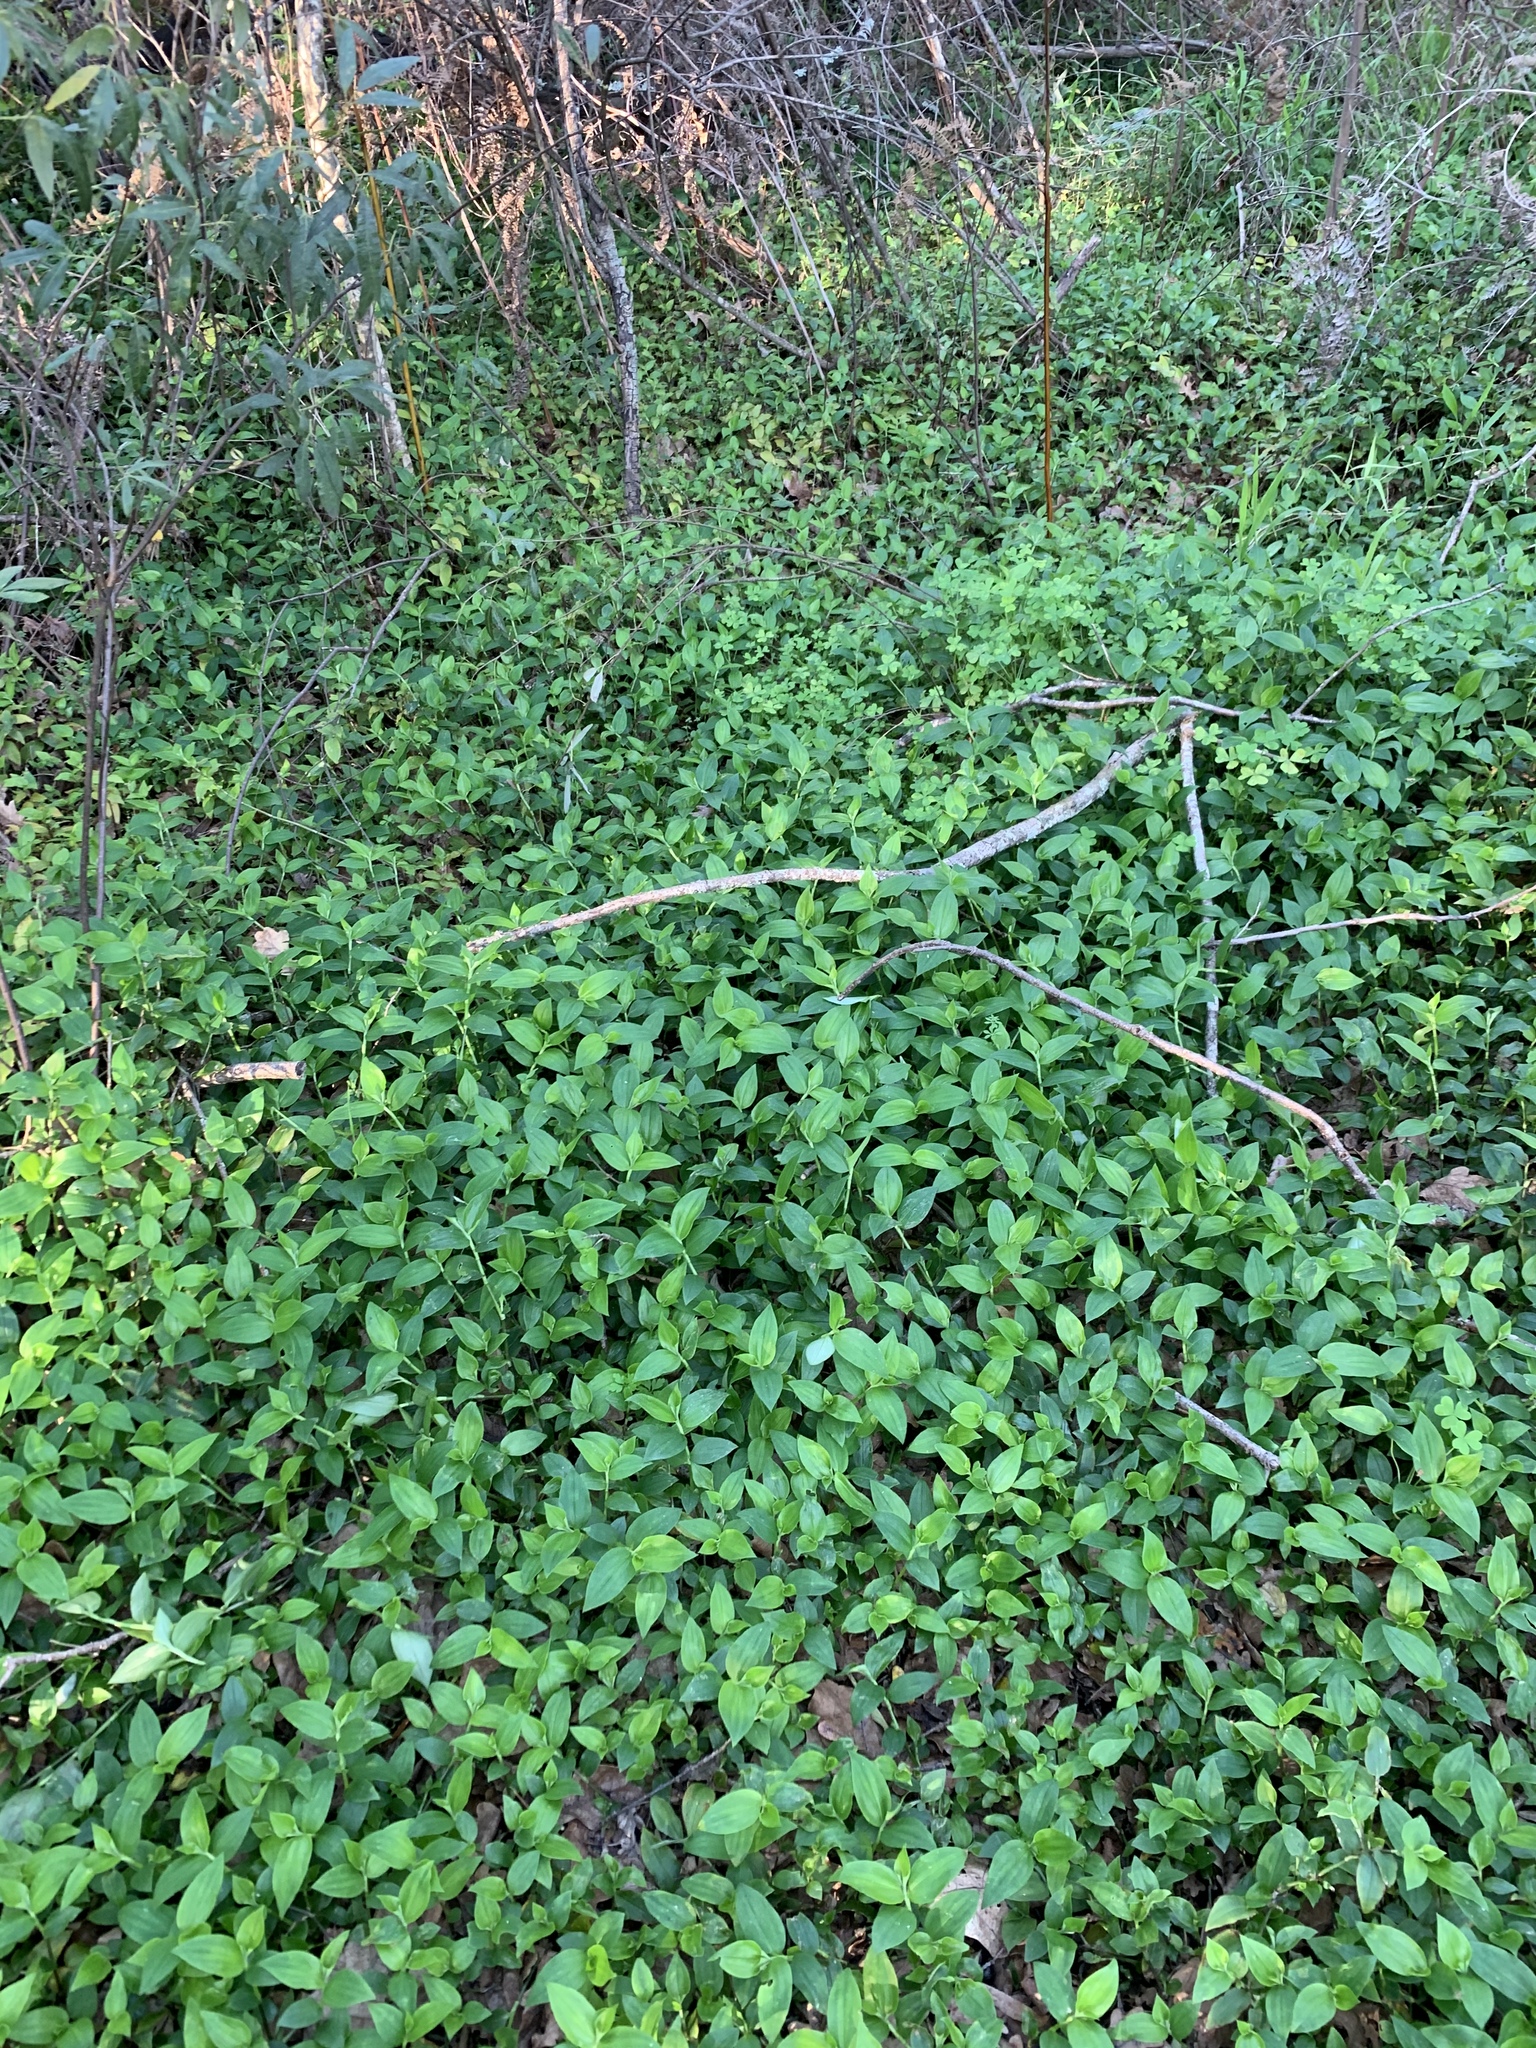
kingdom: Plantae
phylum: Tracheophyta
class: Liliopsida
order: Commelinales
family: Commelinaceae
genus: Tradescantia
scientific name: Tradescantia fluminensis
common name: Wandering-jew
